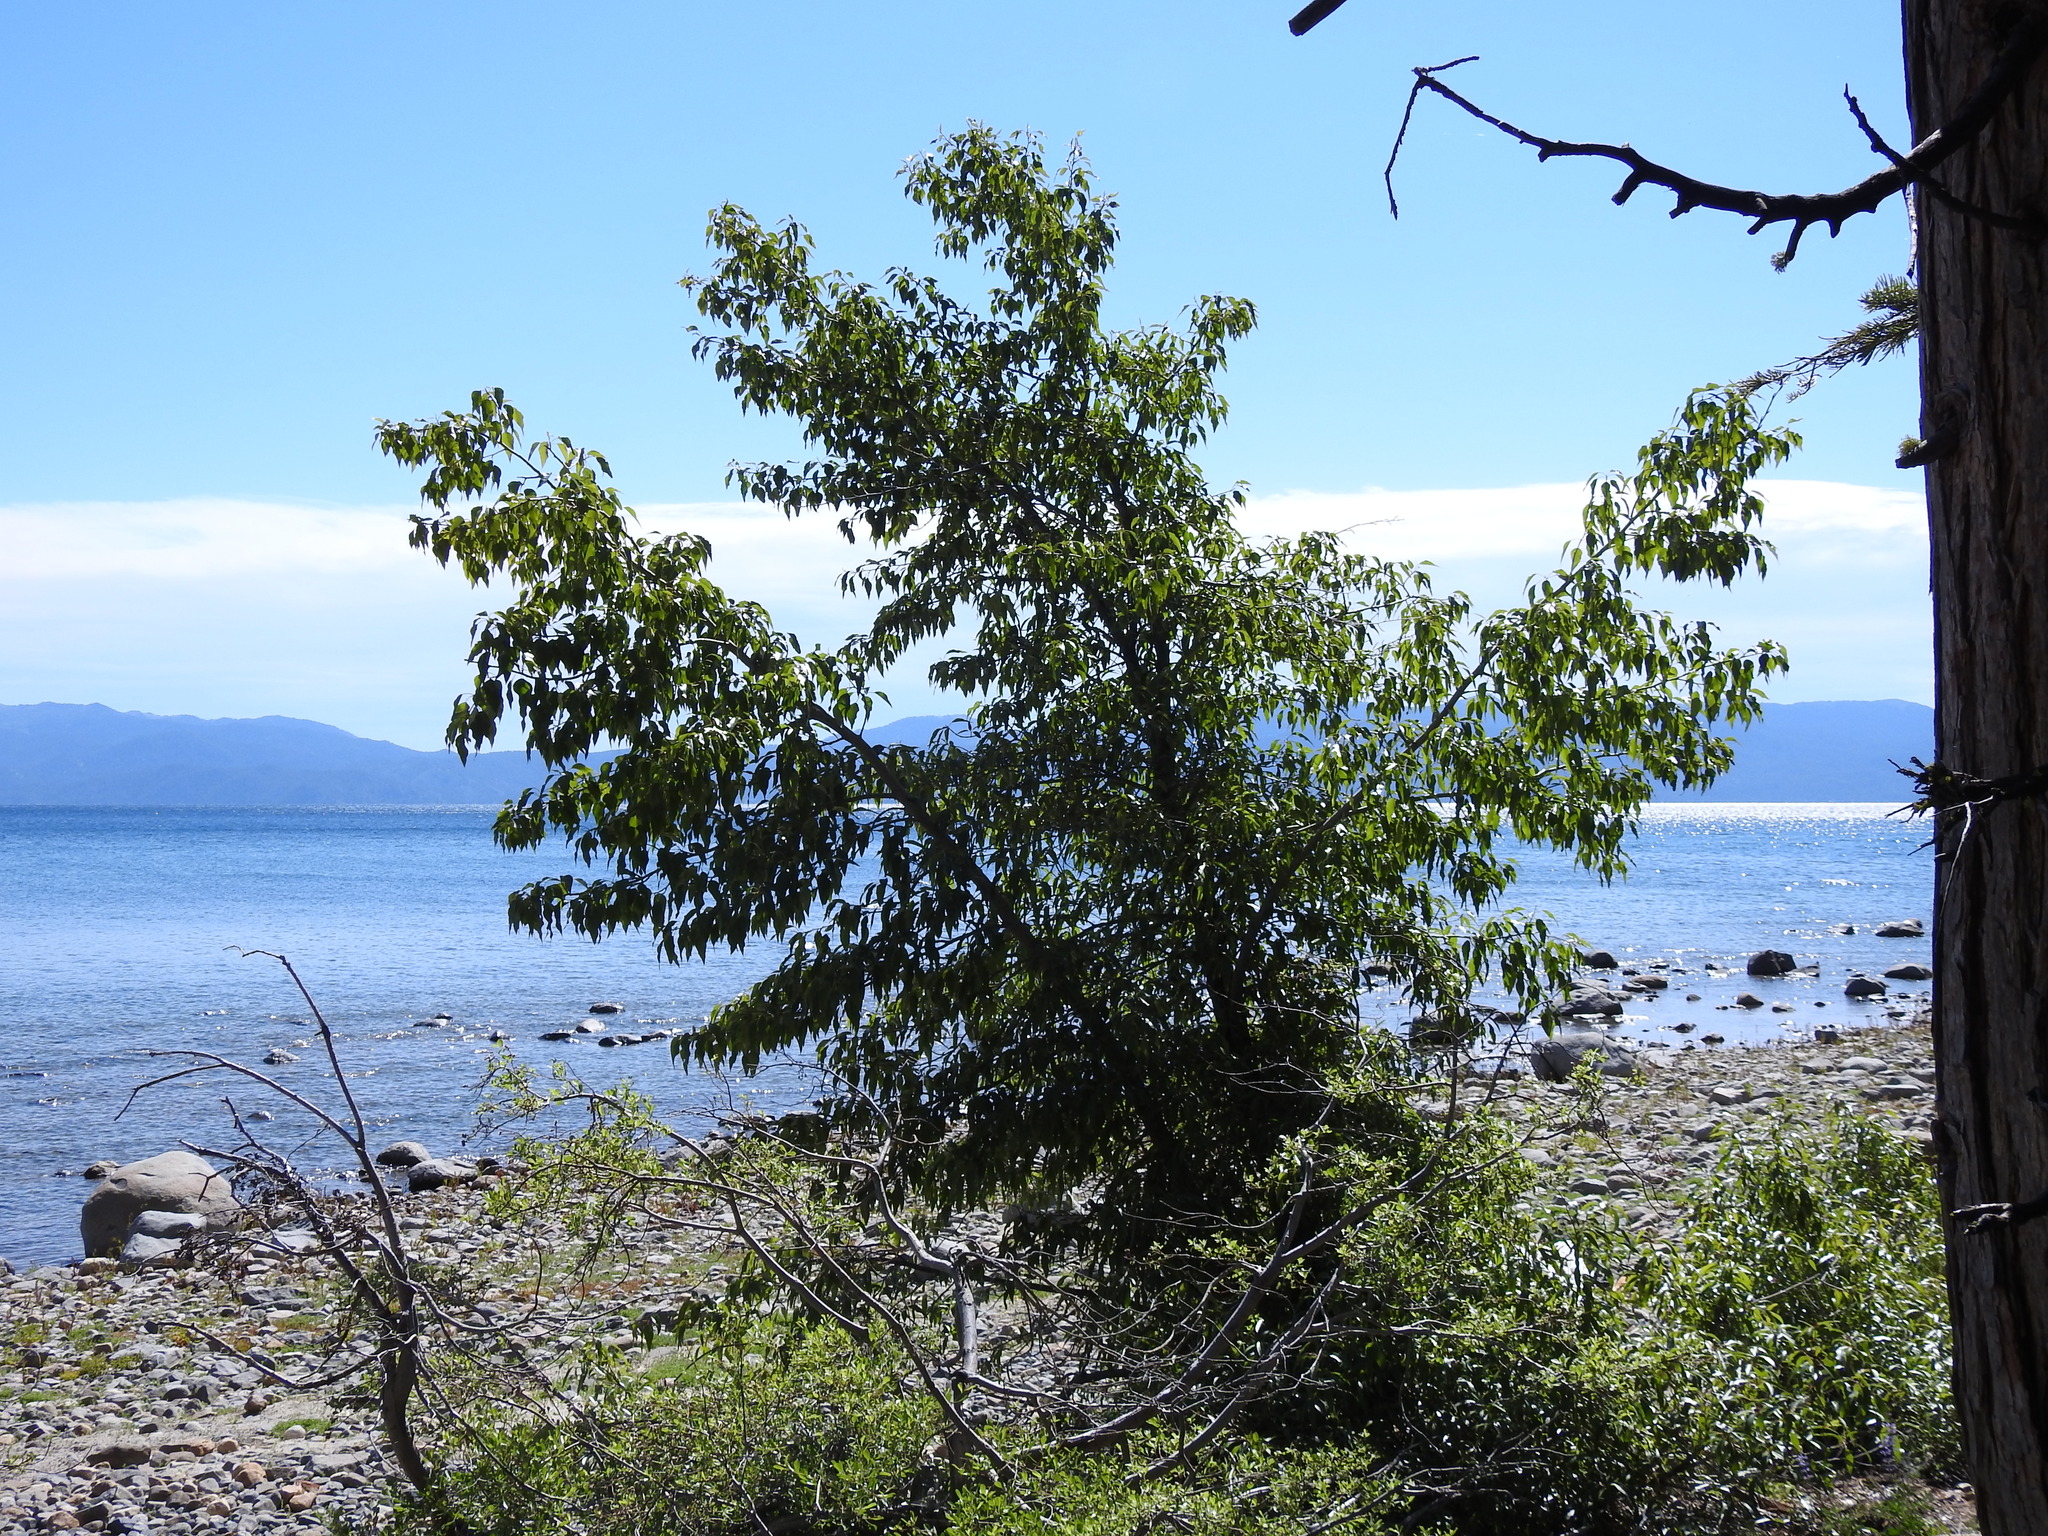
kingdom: Plantae
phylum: Tracheophyta
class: Magnoliopsida
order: Malpighiales
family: Salicaceae
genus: Populus
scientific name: Populus trichocarpa
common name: Black cottonwood
